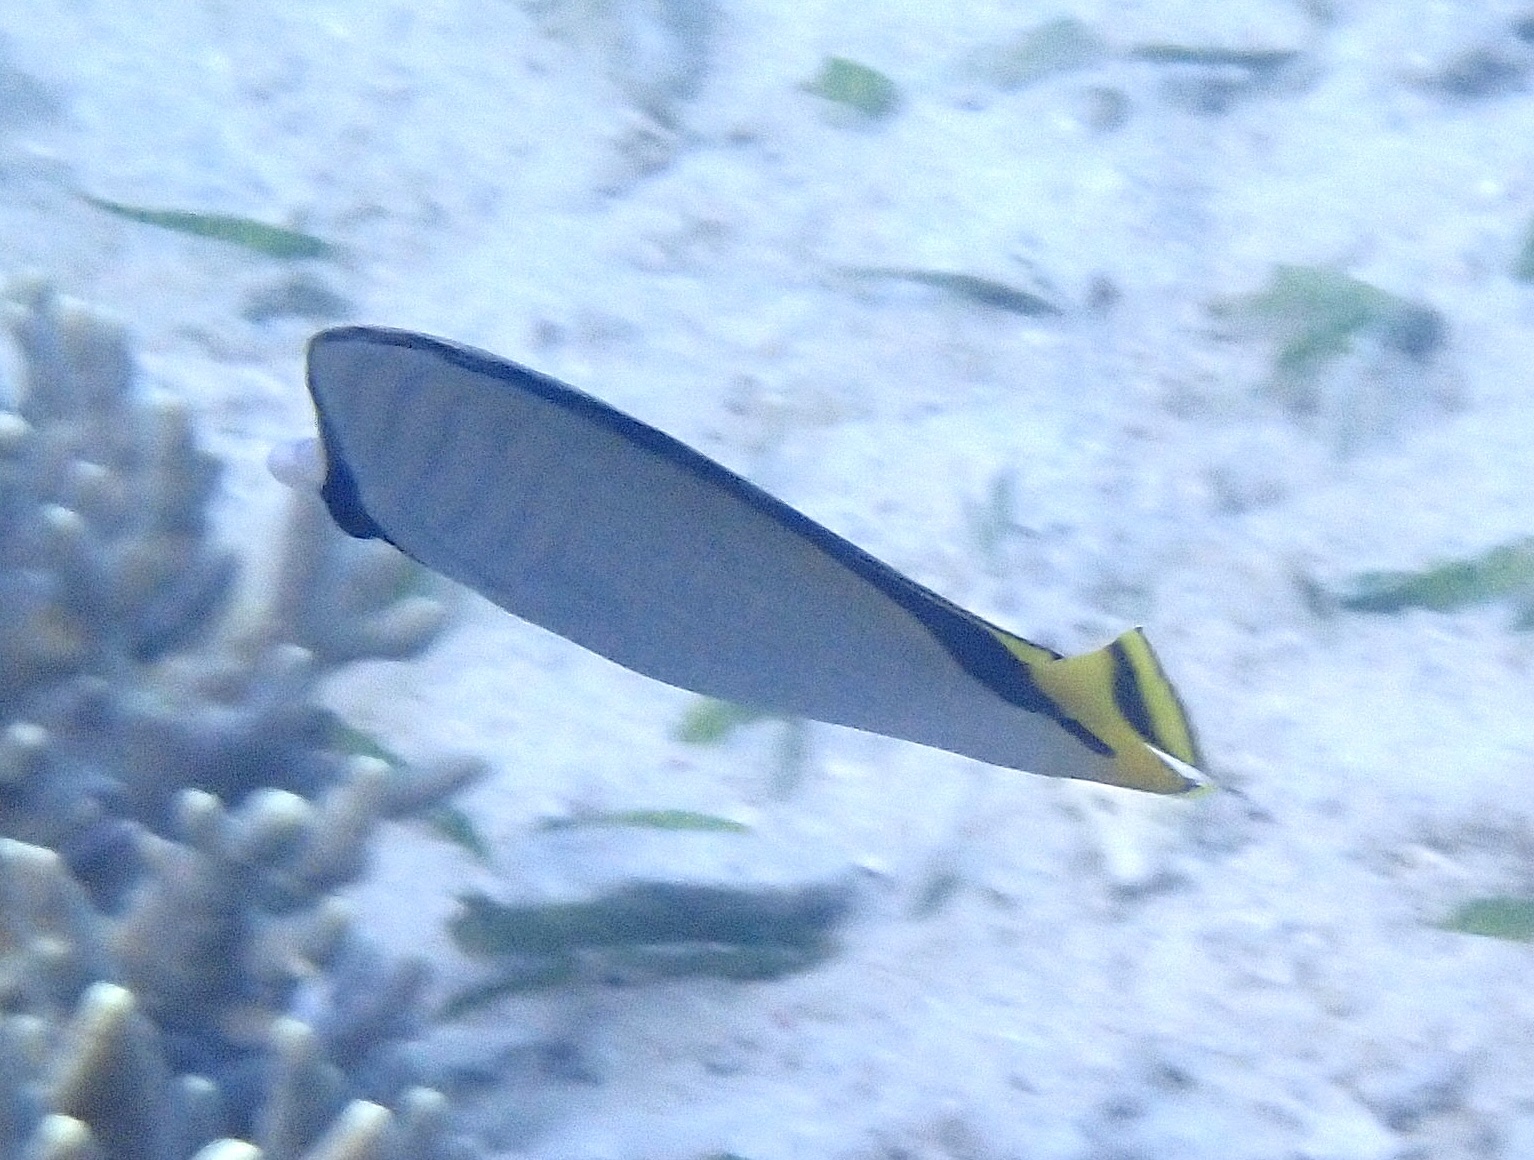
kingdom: Animalia
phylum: Chordata
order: Perciformes
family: Chaetodontidae
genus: Chaetodon
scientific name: Chaetodon vagabundus
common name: Vagabond butterflyfish
